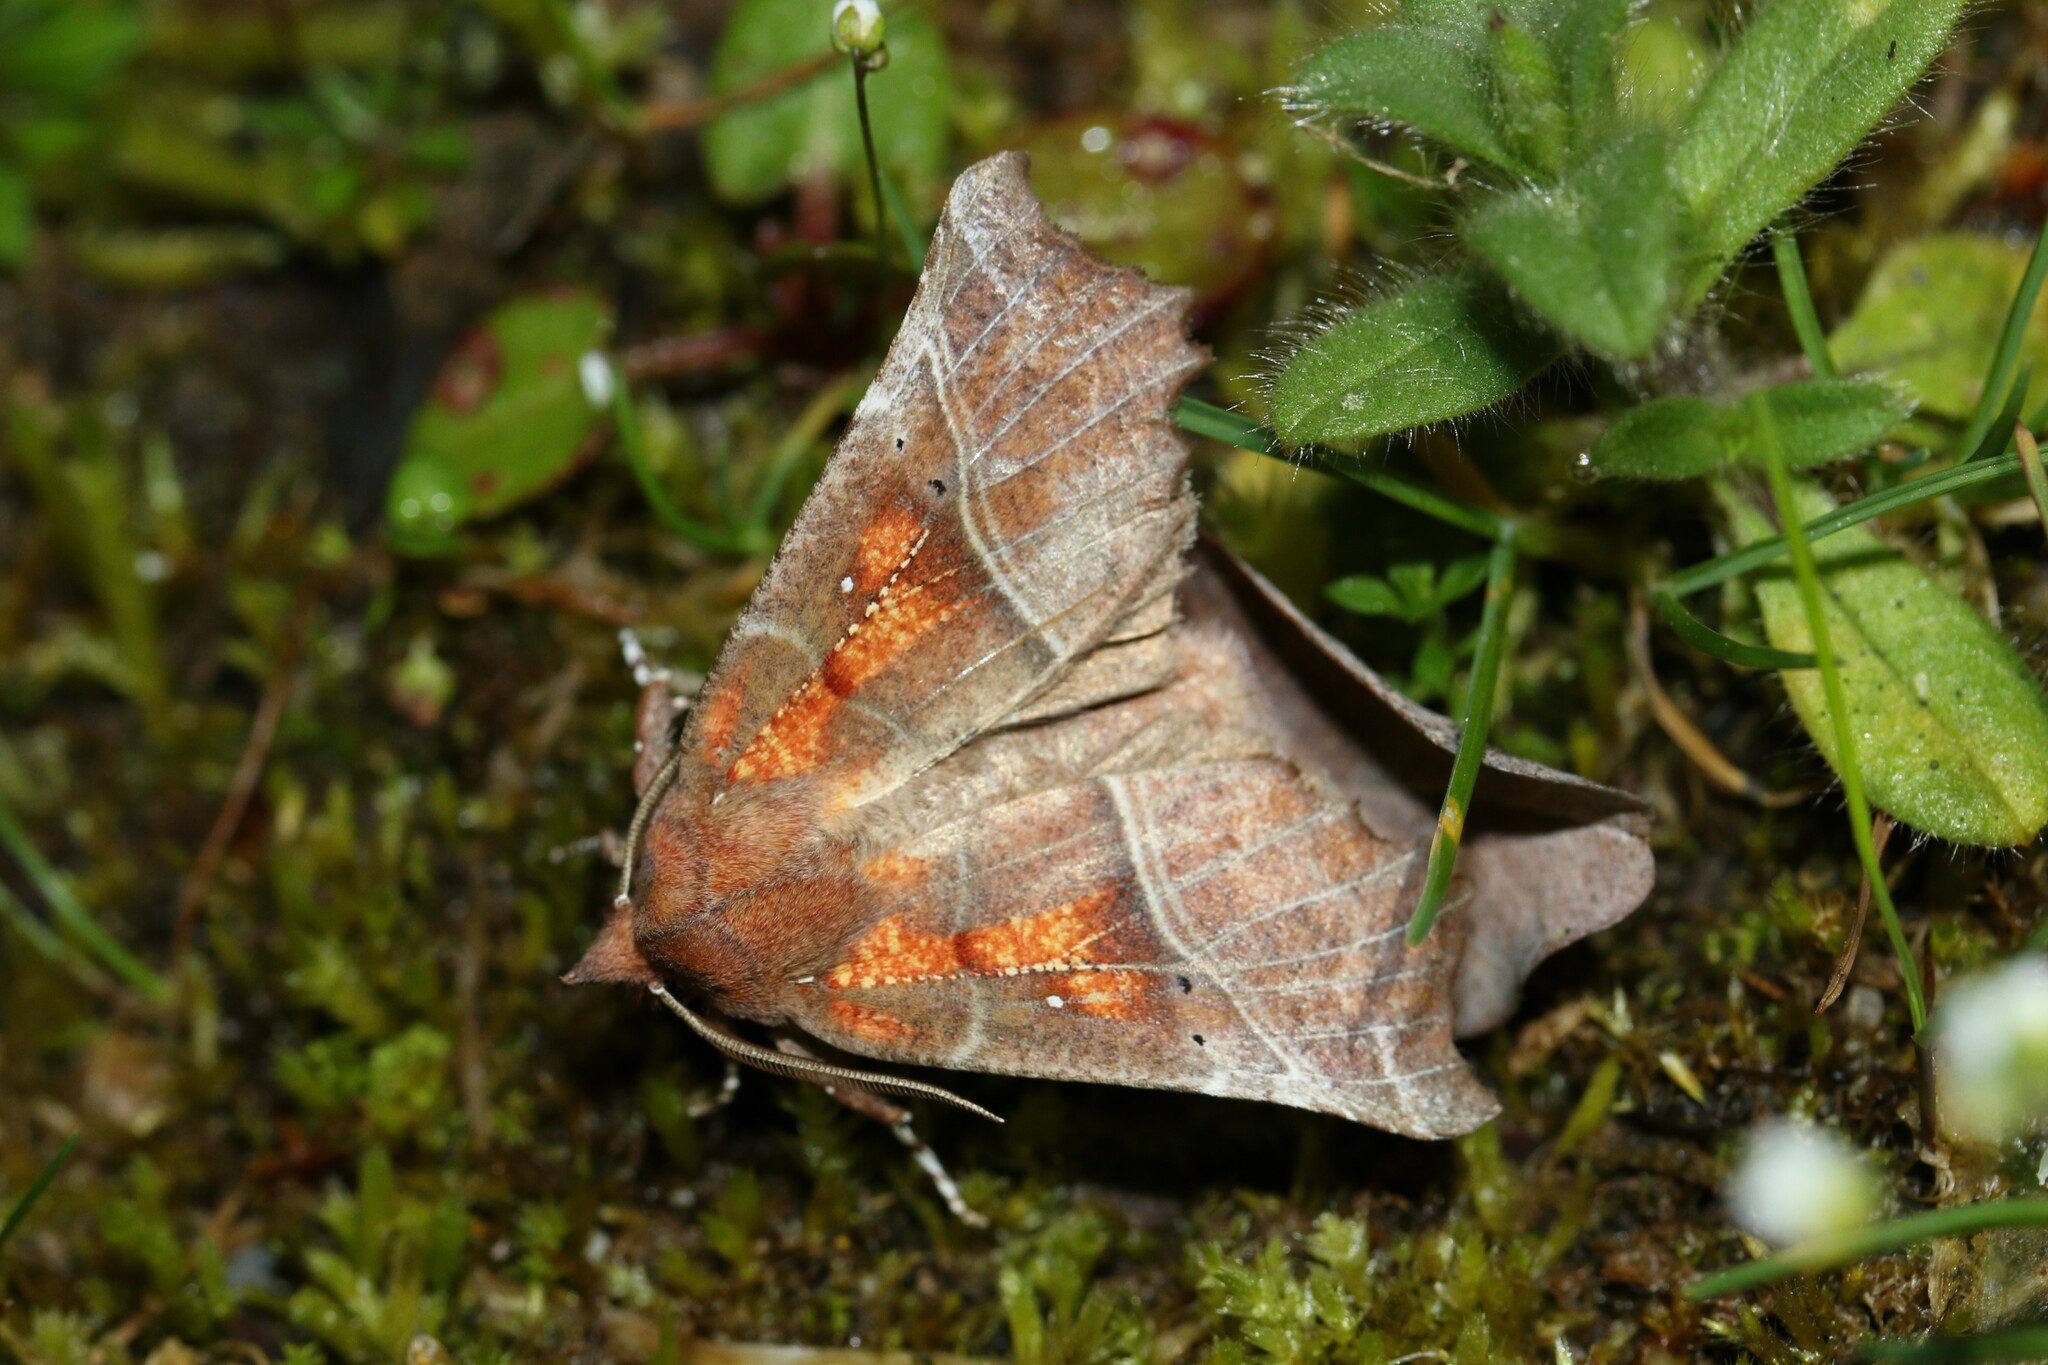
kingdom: Animalia
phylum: Arthropoda
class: Insecta
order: Lepidoptera
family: Erebidae
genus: Scoliopteryx
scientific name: Scoliopteryx libatrix
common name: Herald
